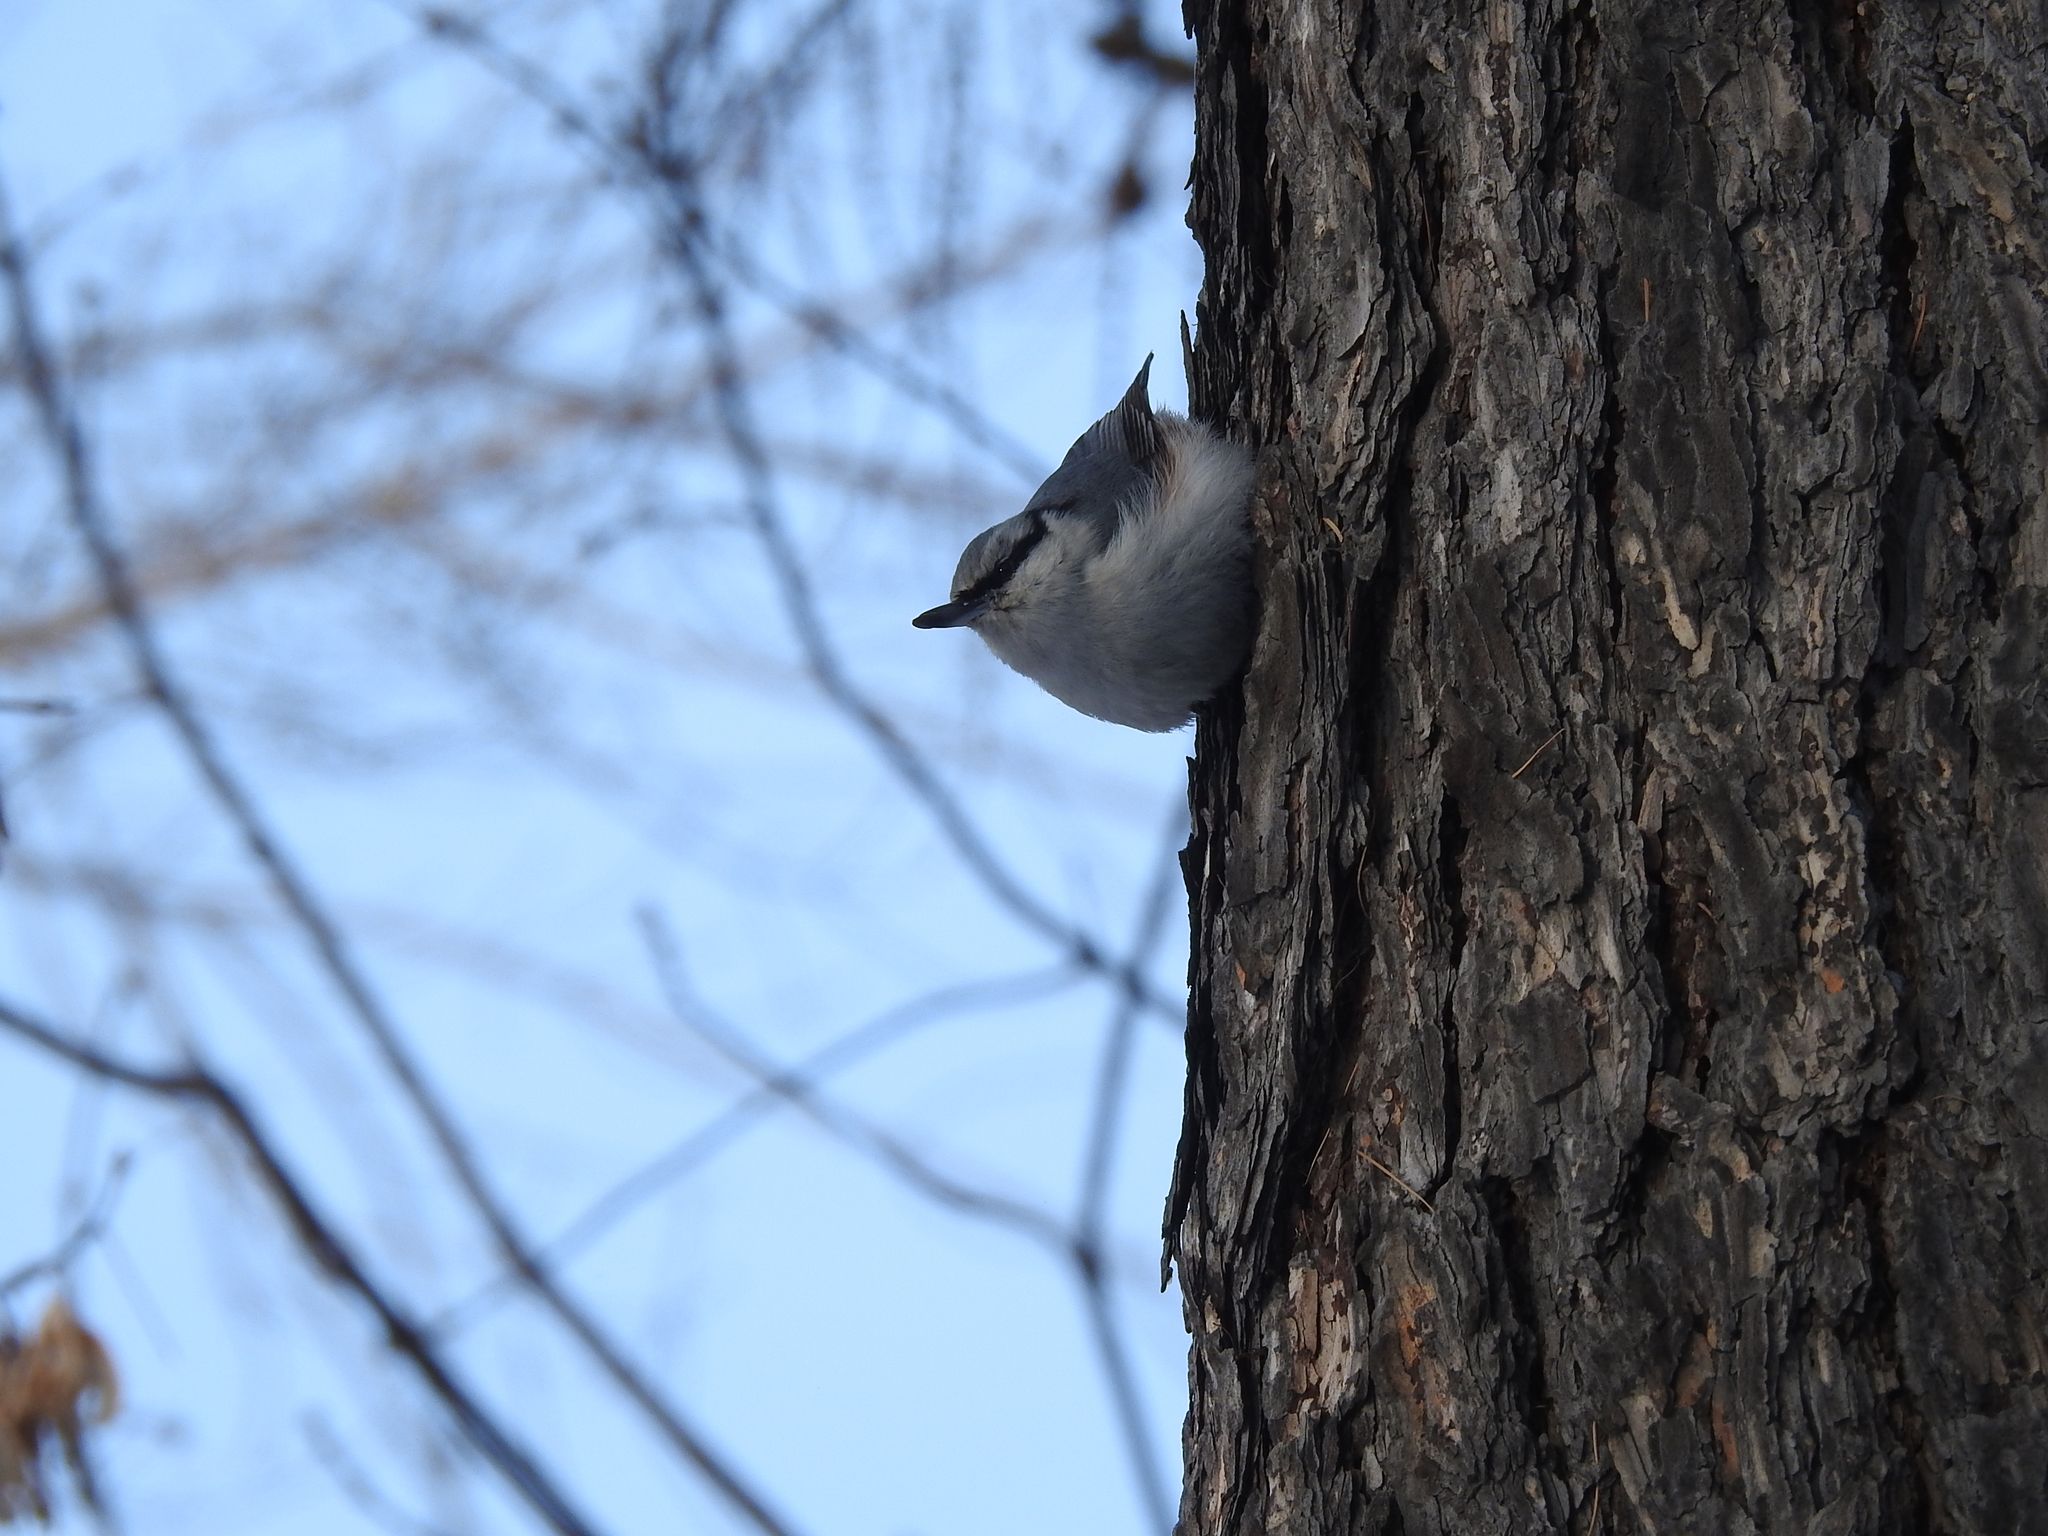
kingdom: Animalia
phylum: Chordata
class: Aves
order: Passeriformes
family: Sittidae
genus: Sitta
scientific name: Sitta europaea
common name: Eurasian nuthatch
